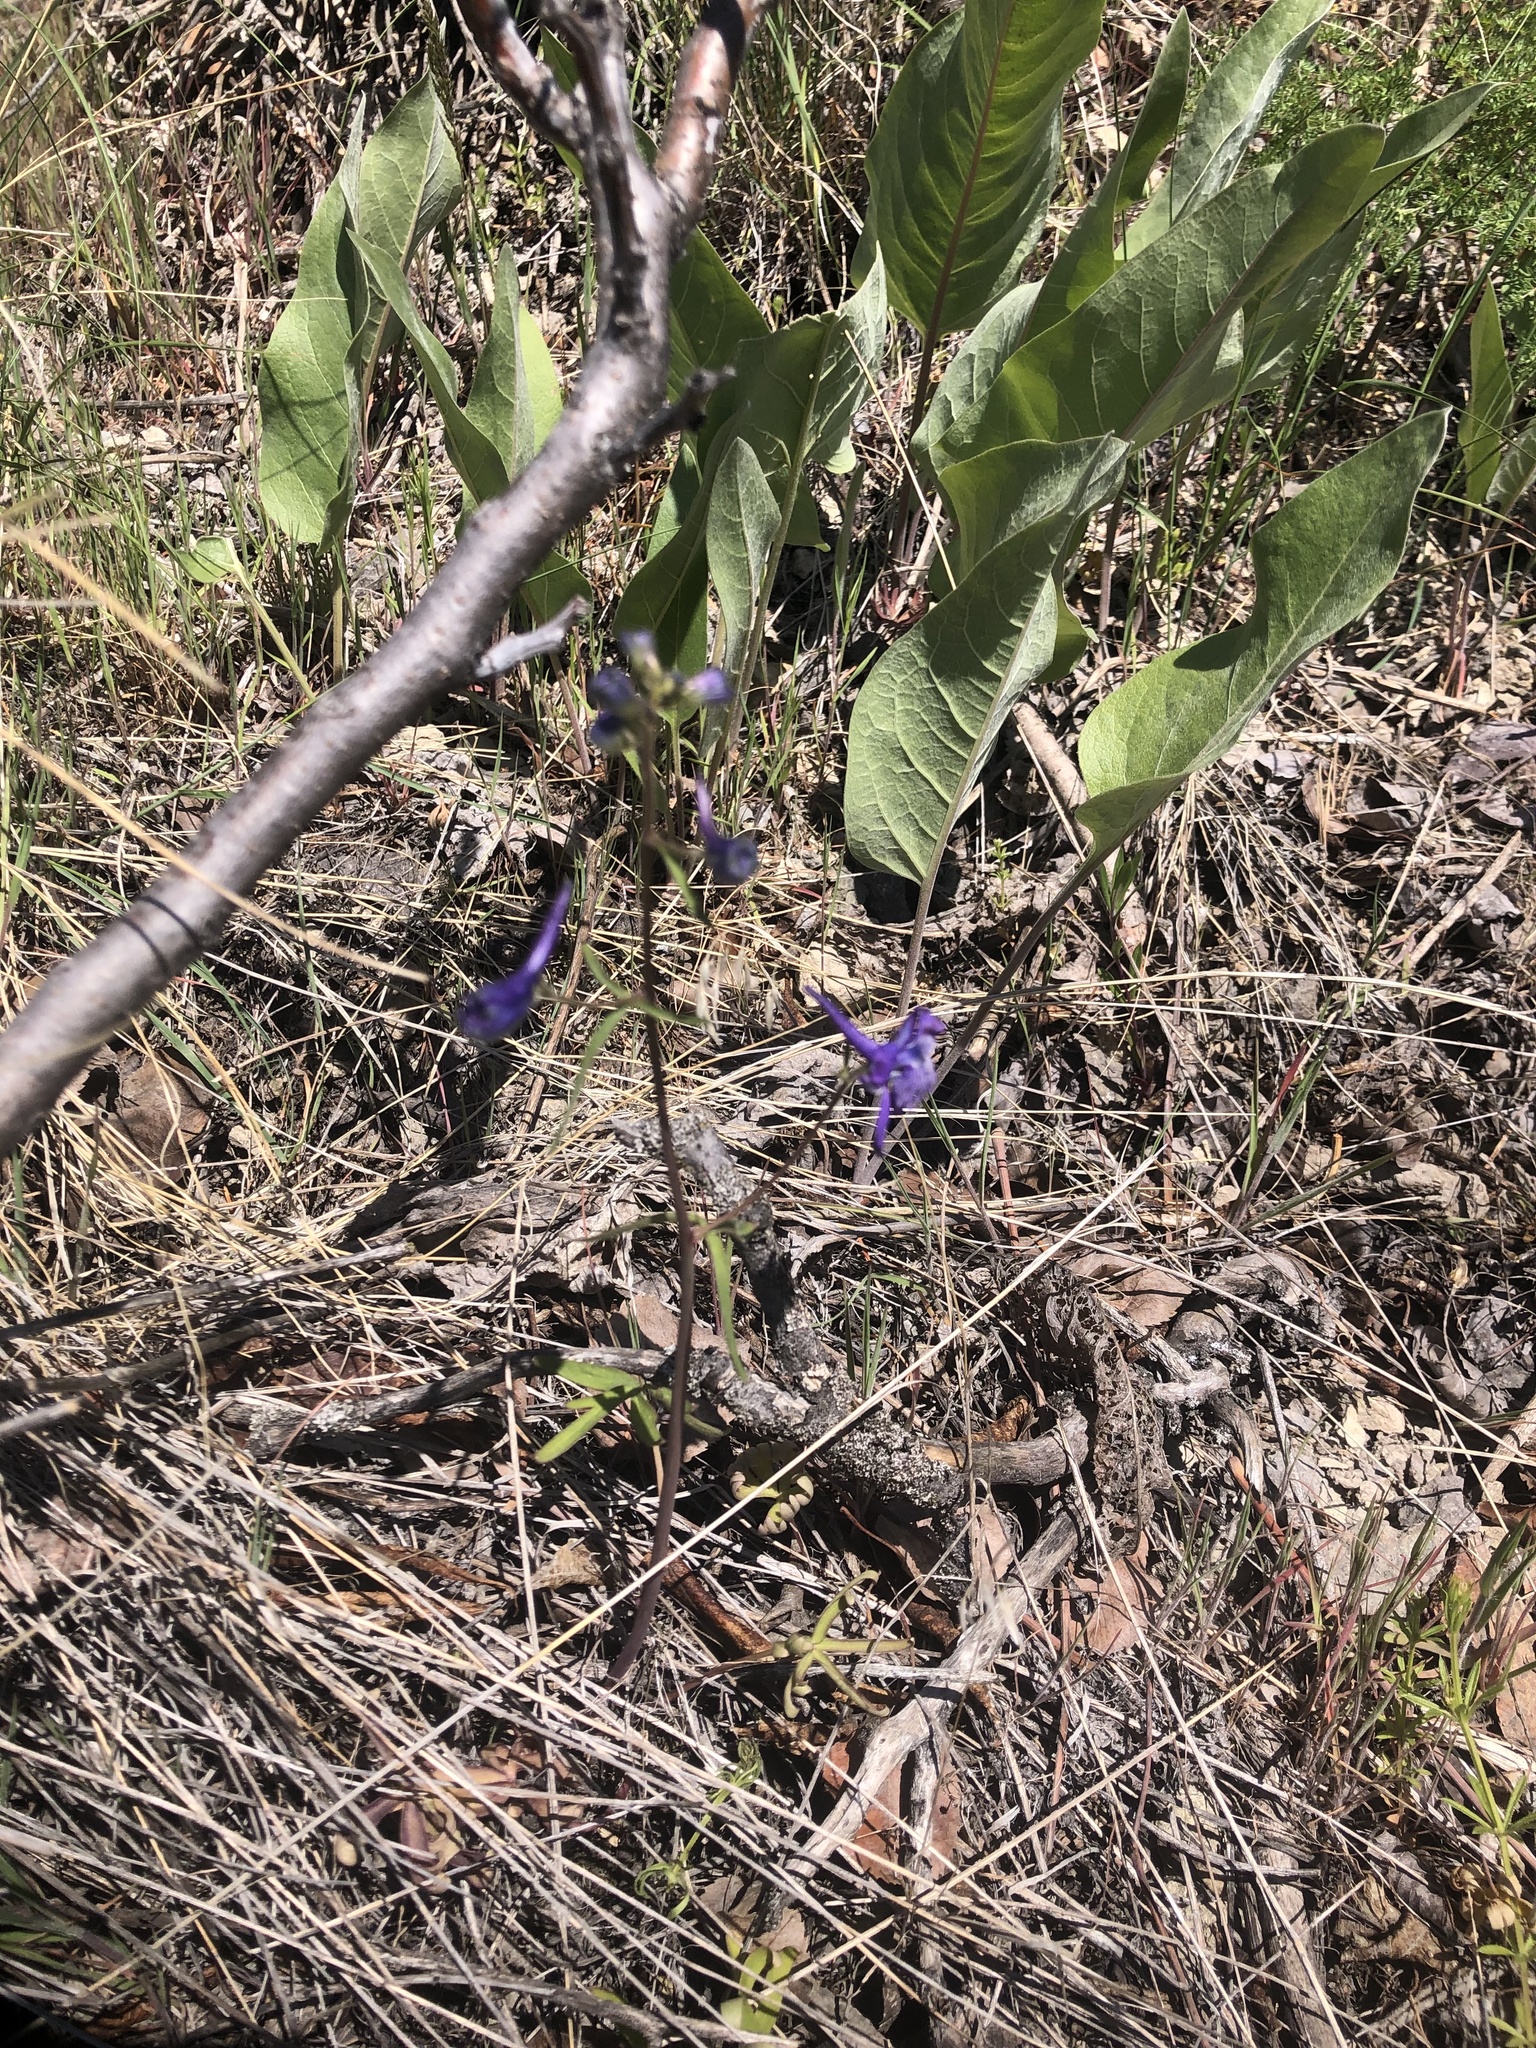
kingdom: Plantae
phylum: Tracheophyta
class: Magnoliopsida
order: Ranunculales
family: Ranunculaceae
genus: Delphinium
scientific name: Delphinium nuttallianum
